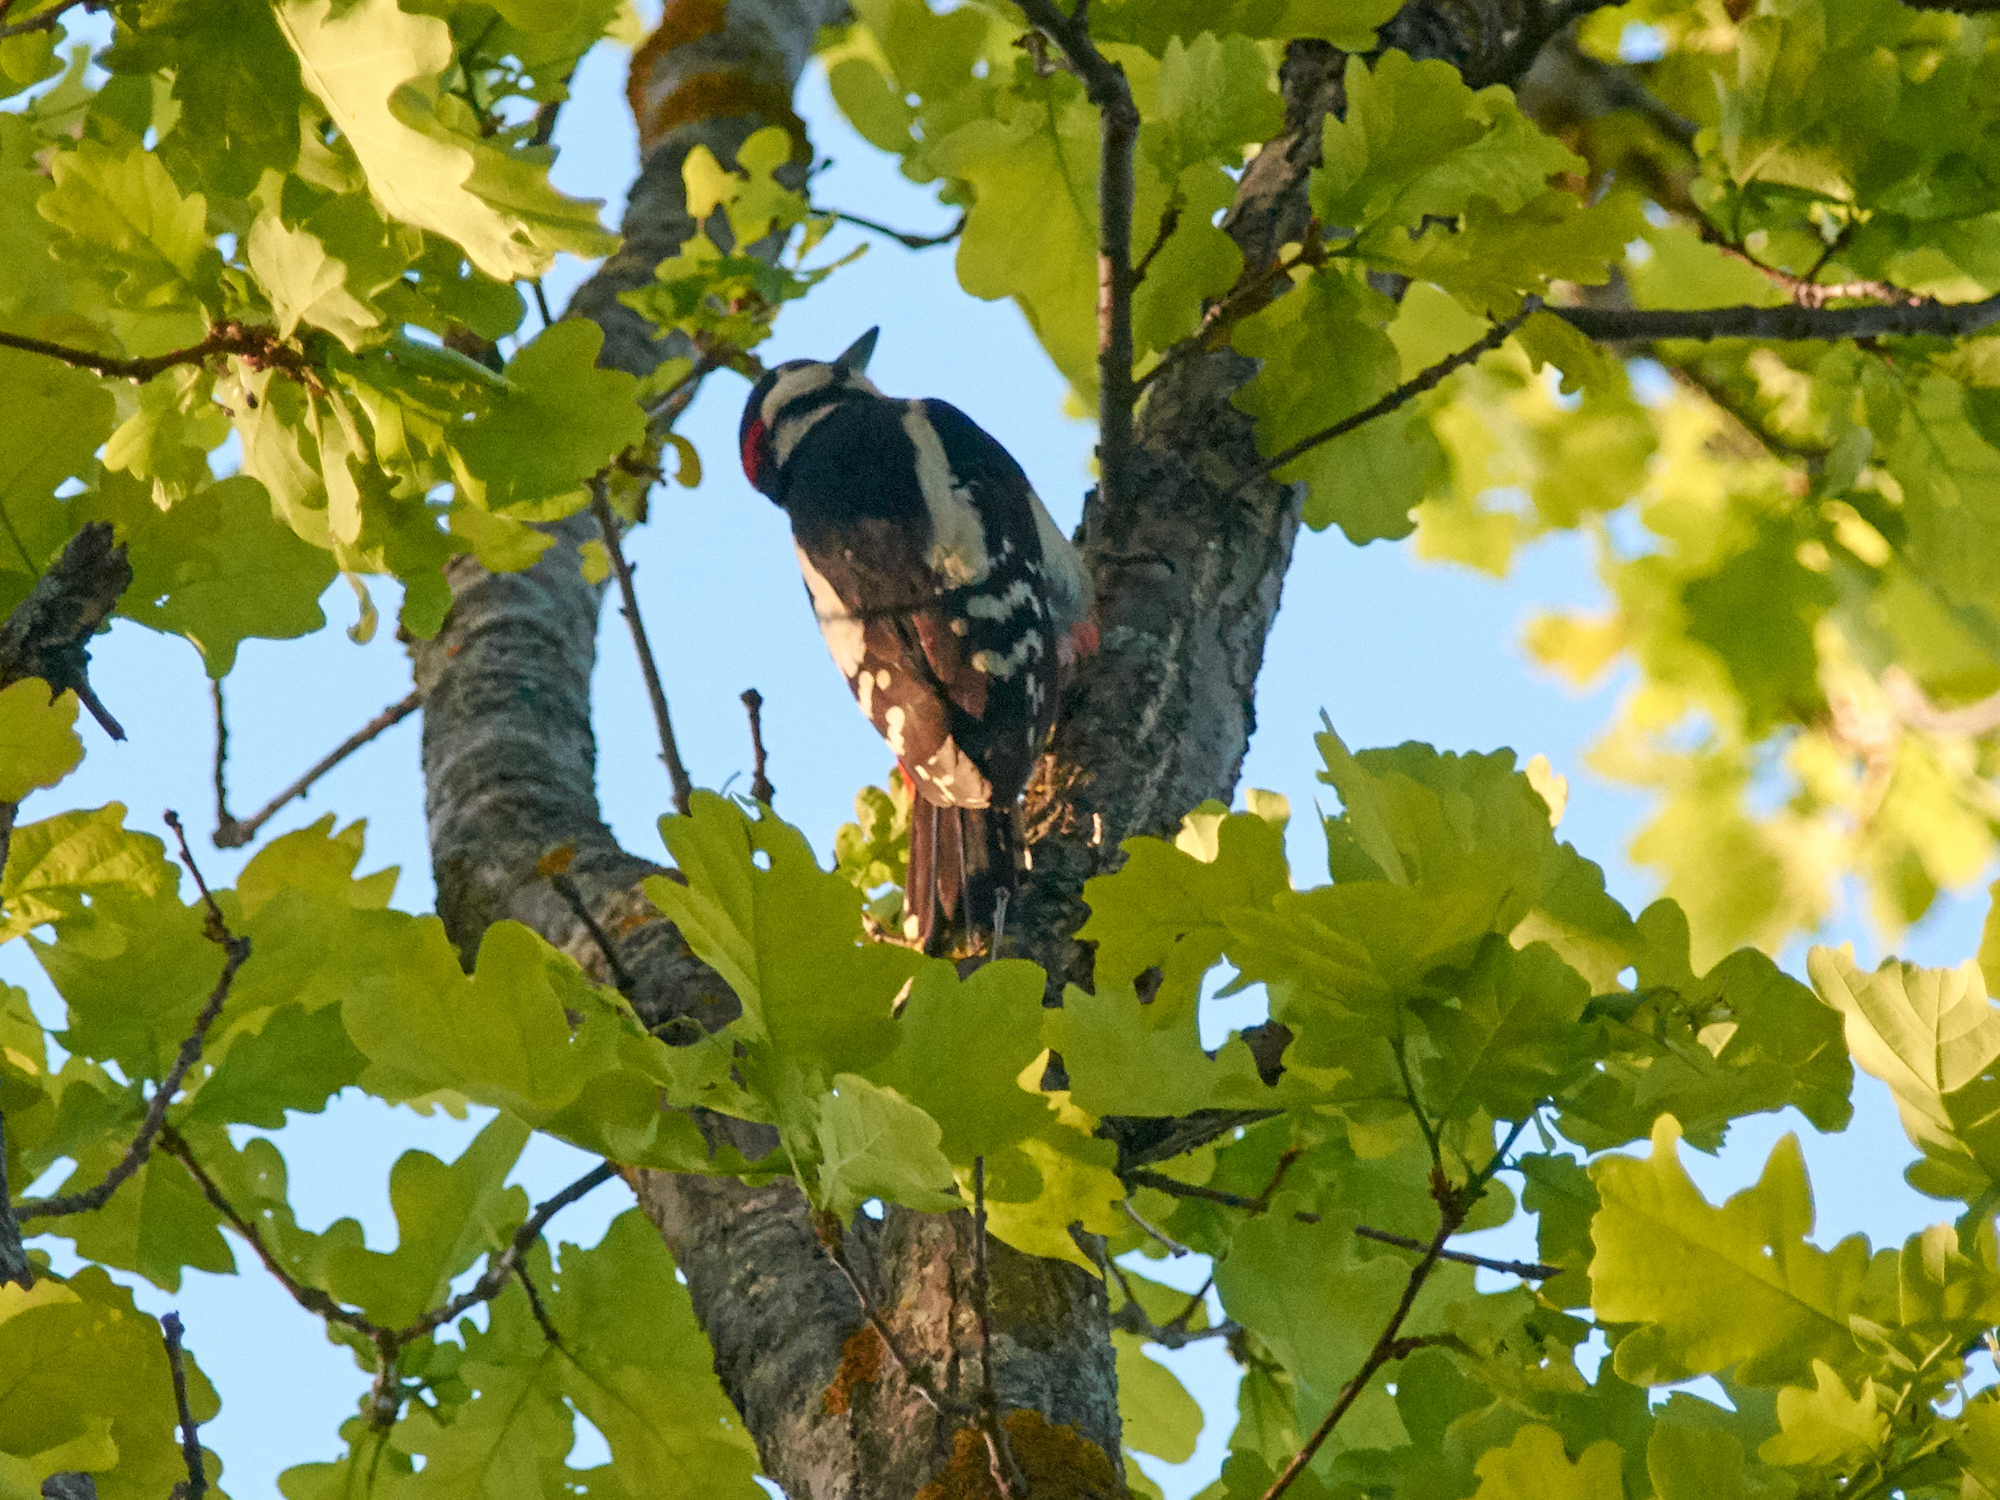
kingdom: Animalia
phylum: Chordata
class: Aves
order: Piciformes
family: Picidae
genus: Dendrocopos
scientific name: Dendrocopos major
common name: Great spotted woodpecker
